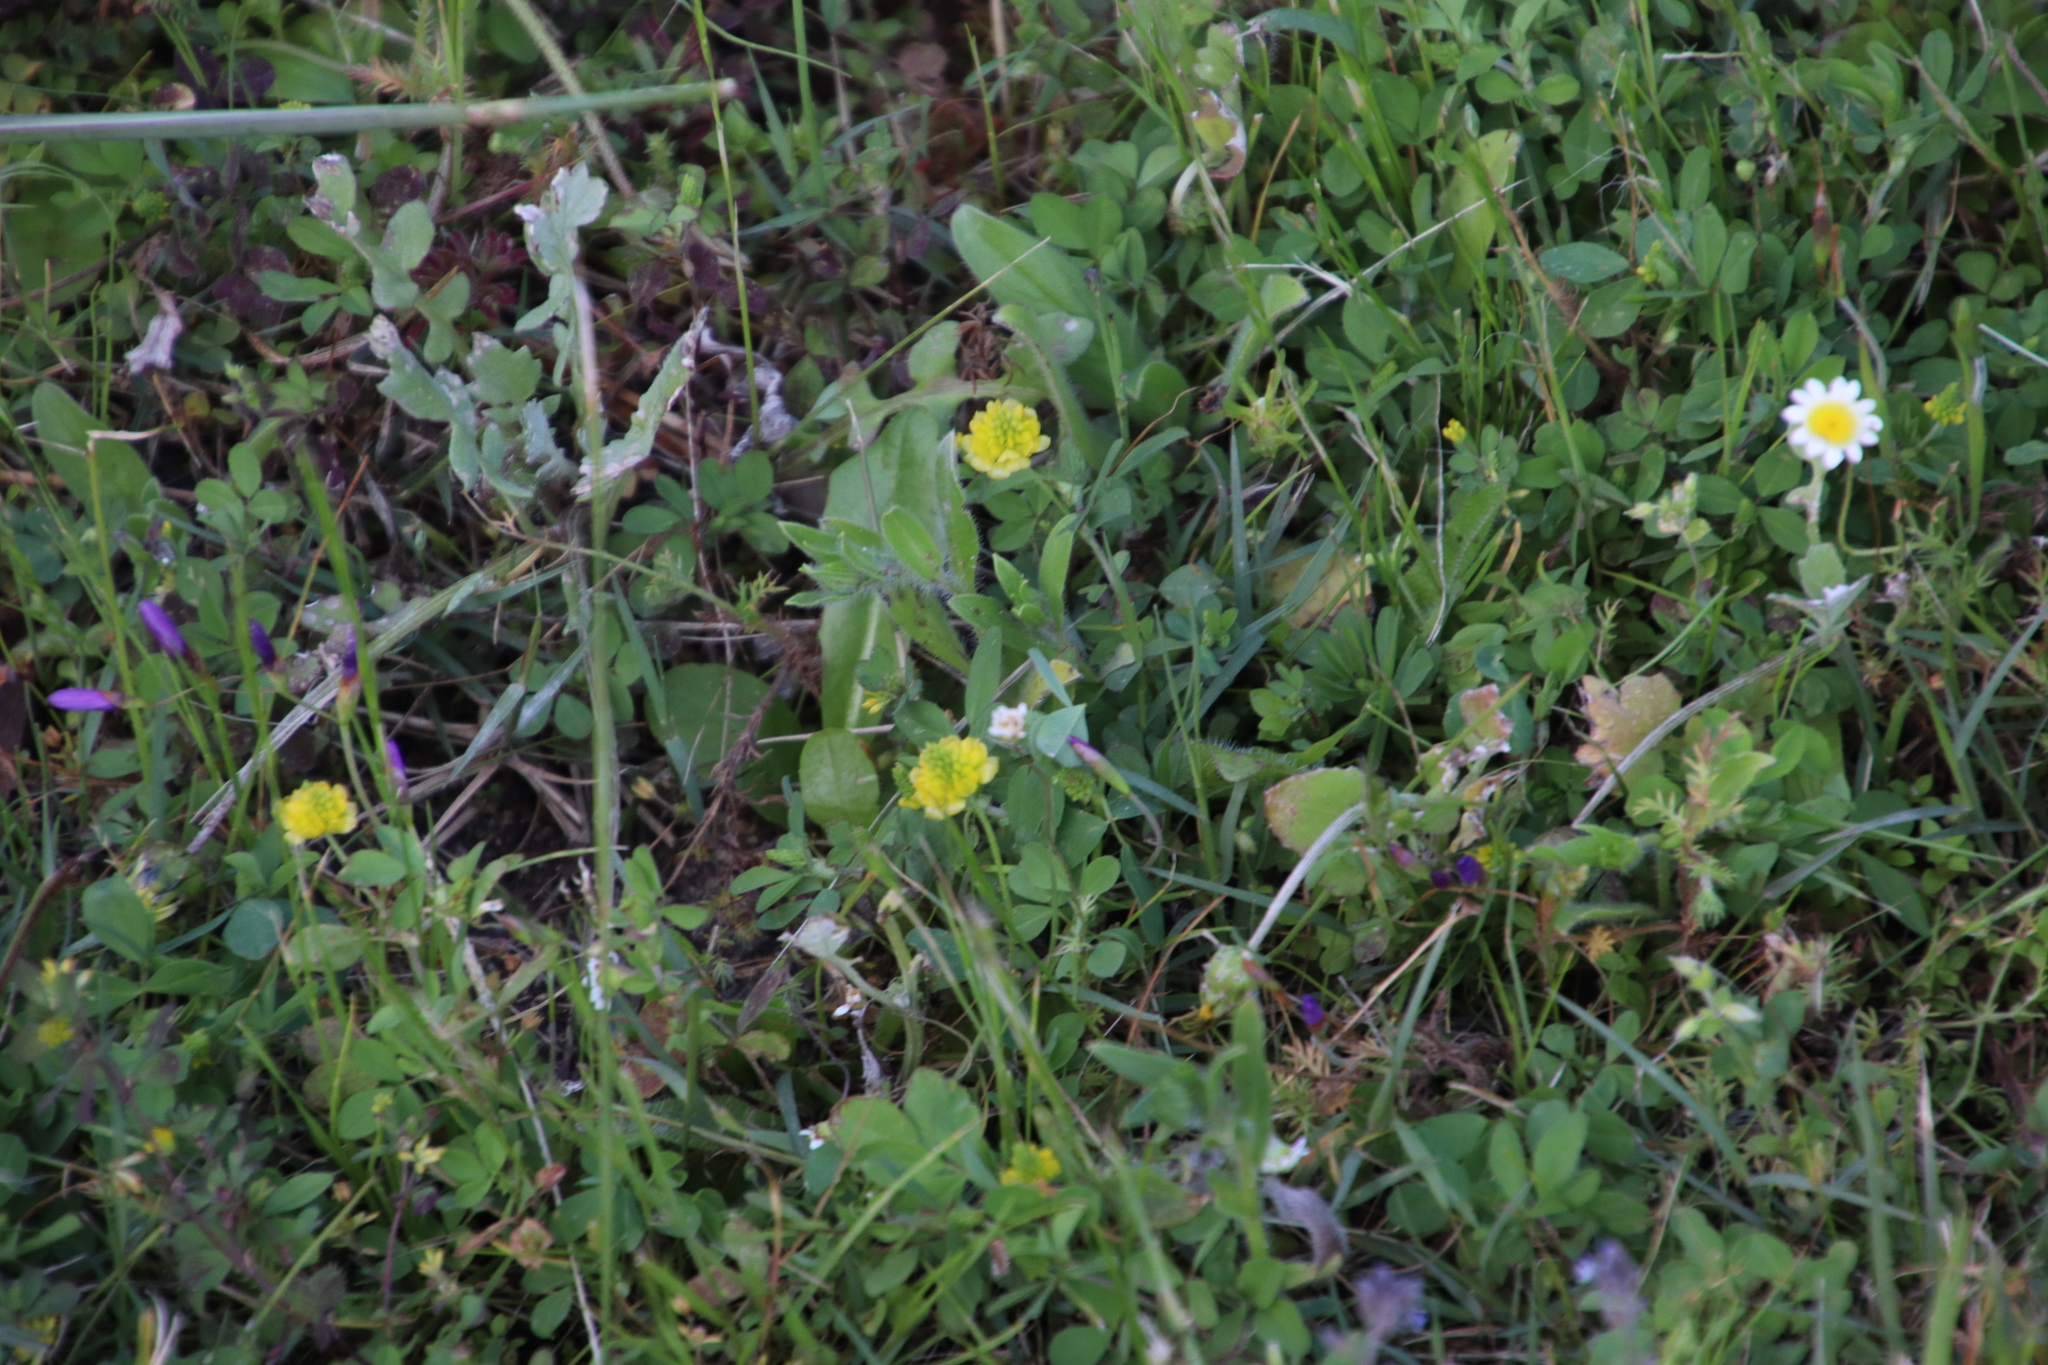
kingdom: Plantae
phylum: Tracheophyta
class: Magnoliopsida
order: Fabales
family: Fabaceae
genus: Trifolium
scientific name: Trifolium campestre
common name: Field clover
